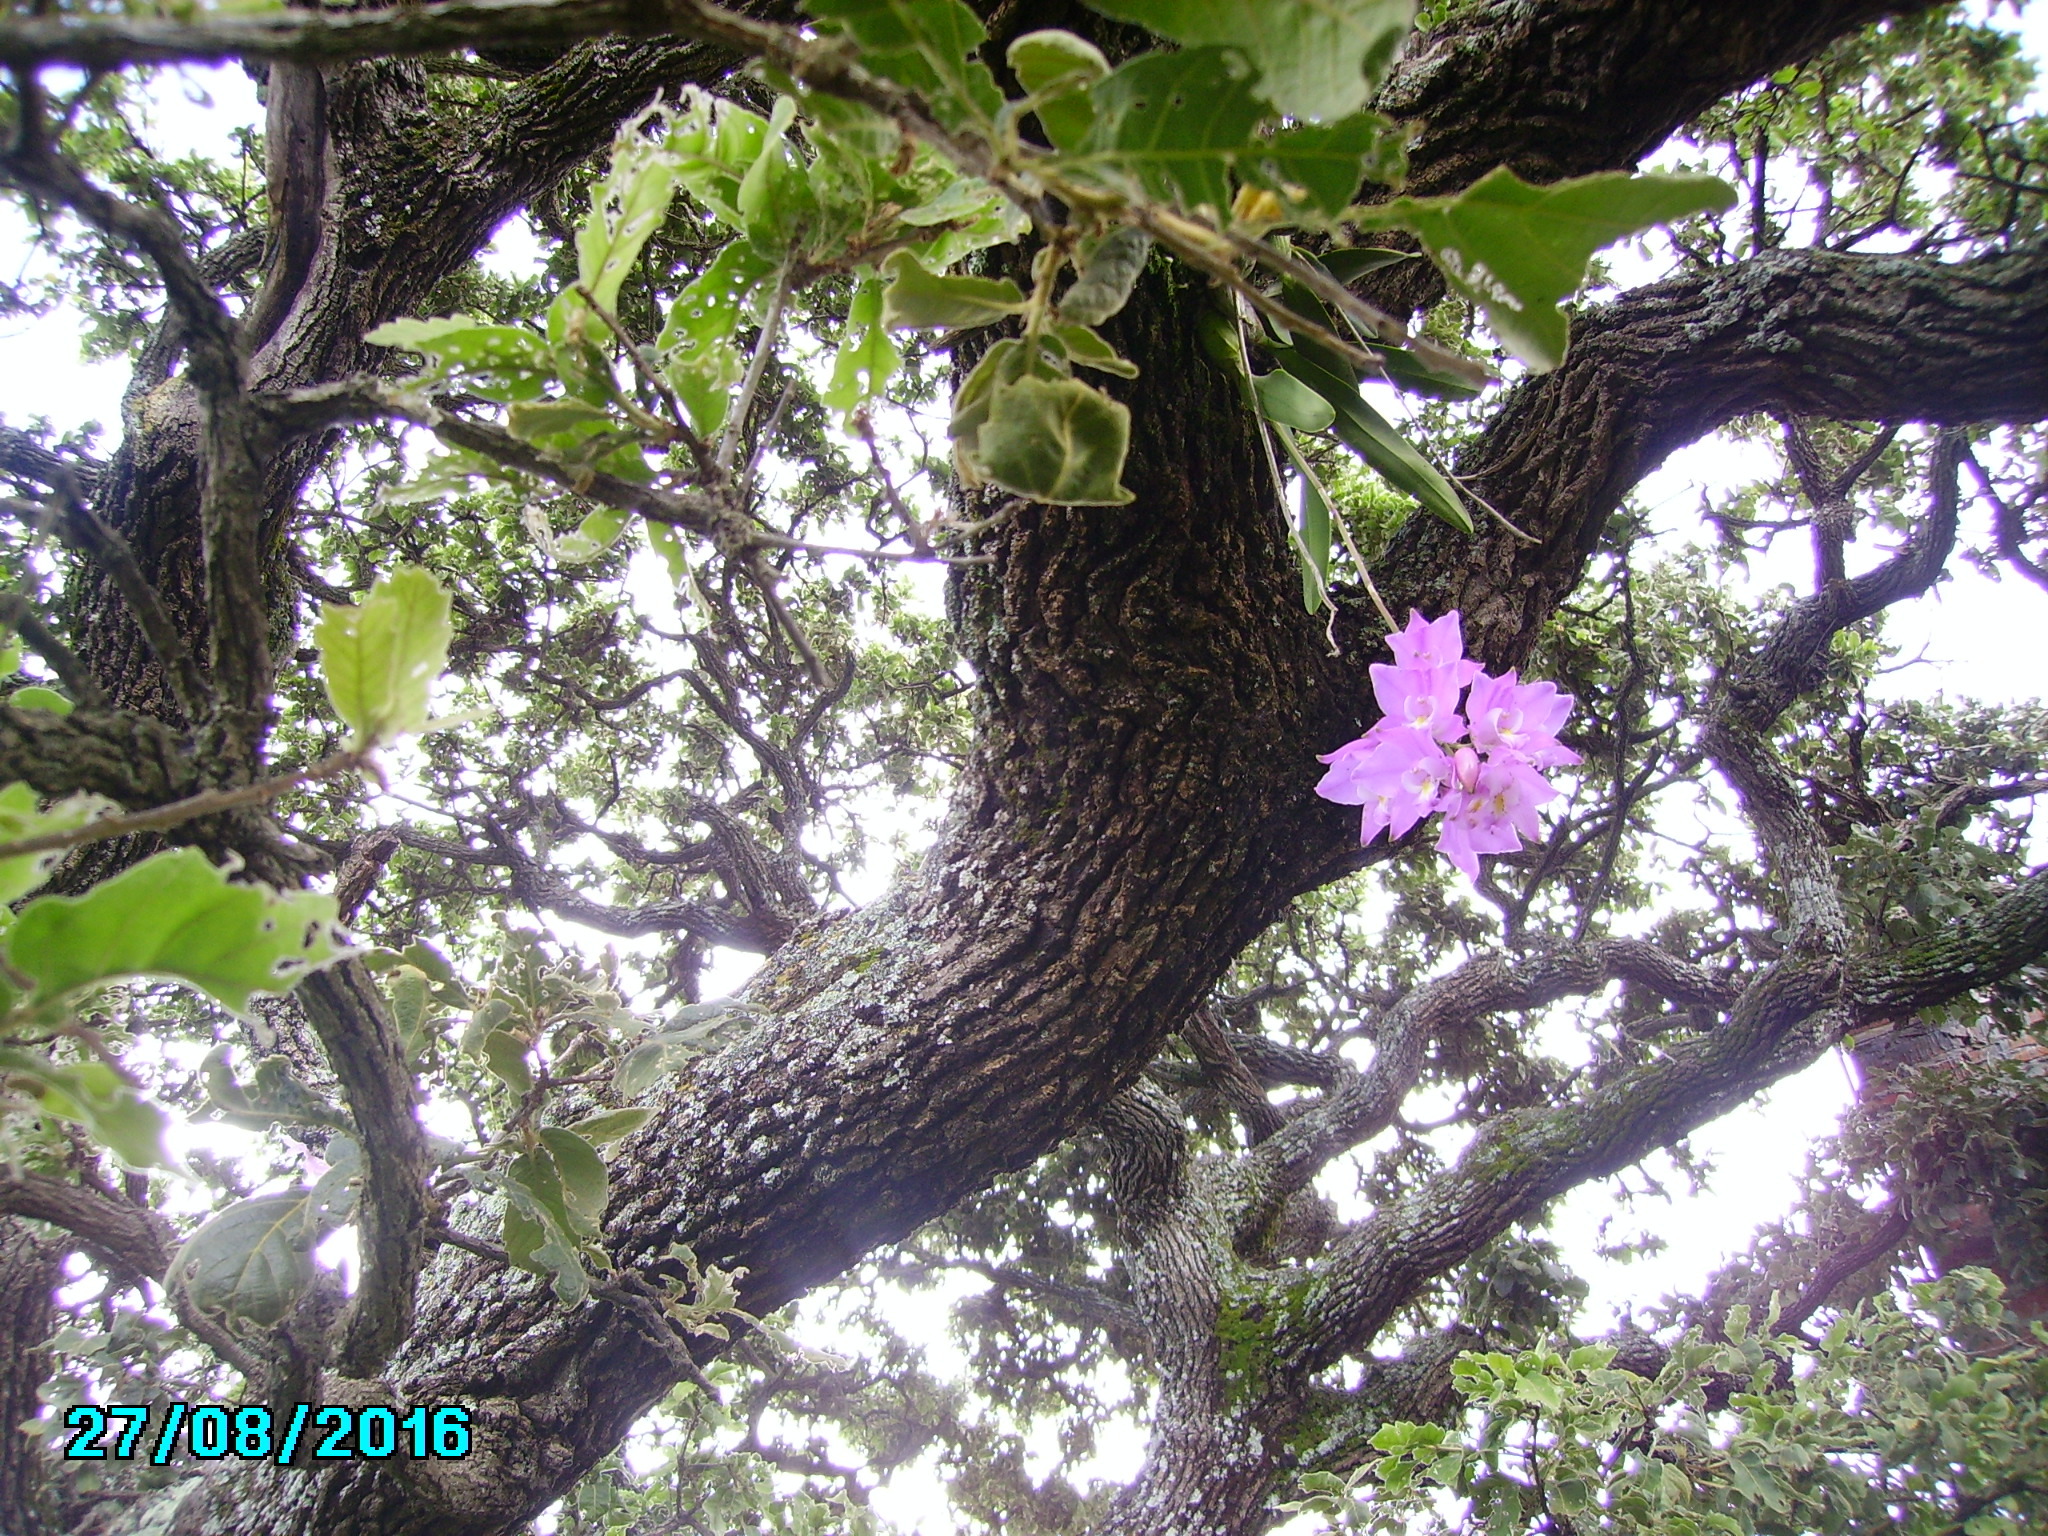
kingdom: Plantae
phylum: Tracheophyta
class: Liliopsida
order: Asparagales
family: Orchidaceae
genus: Laelia
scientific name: Laelia eyermaniana
